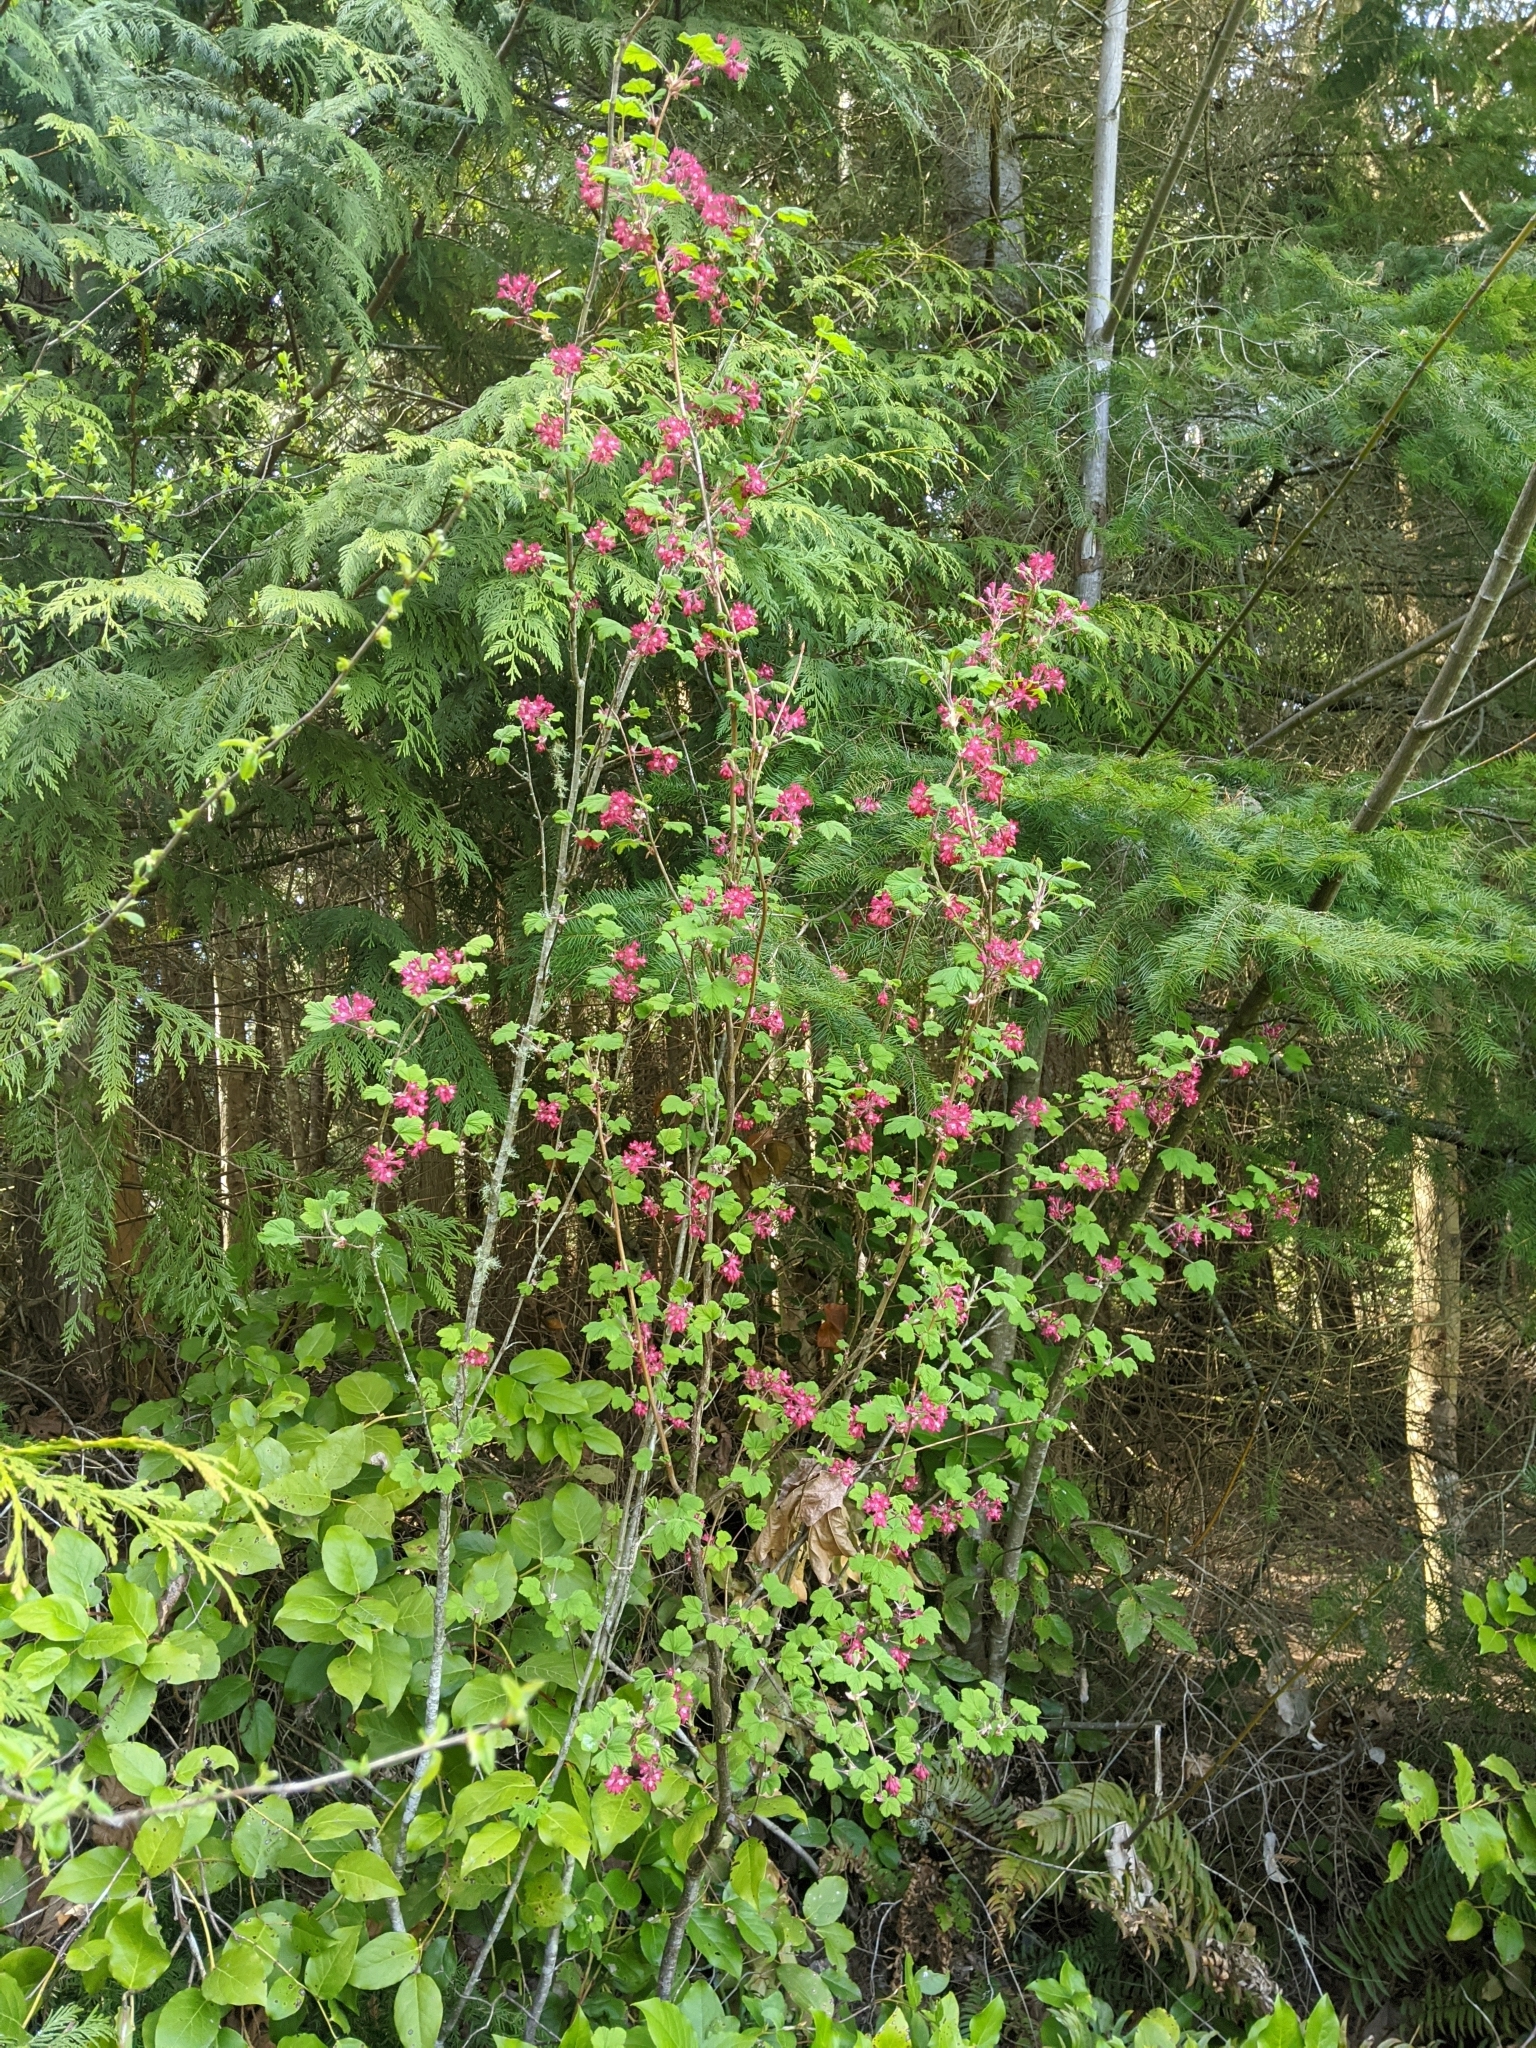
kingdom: Plantae
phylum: Tracheophyta
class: Magnoliopsida
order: Saxifragales
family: Grossulariaceae
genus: Ribes
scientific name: Ribes sanguineum
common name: Flowering currant
